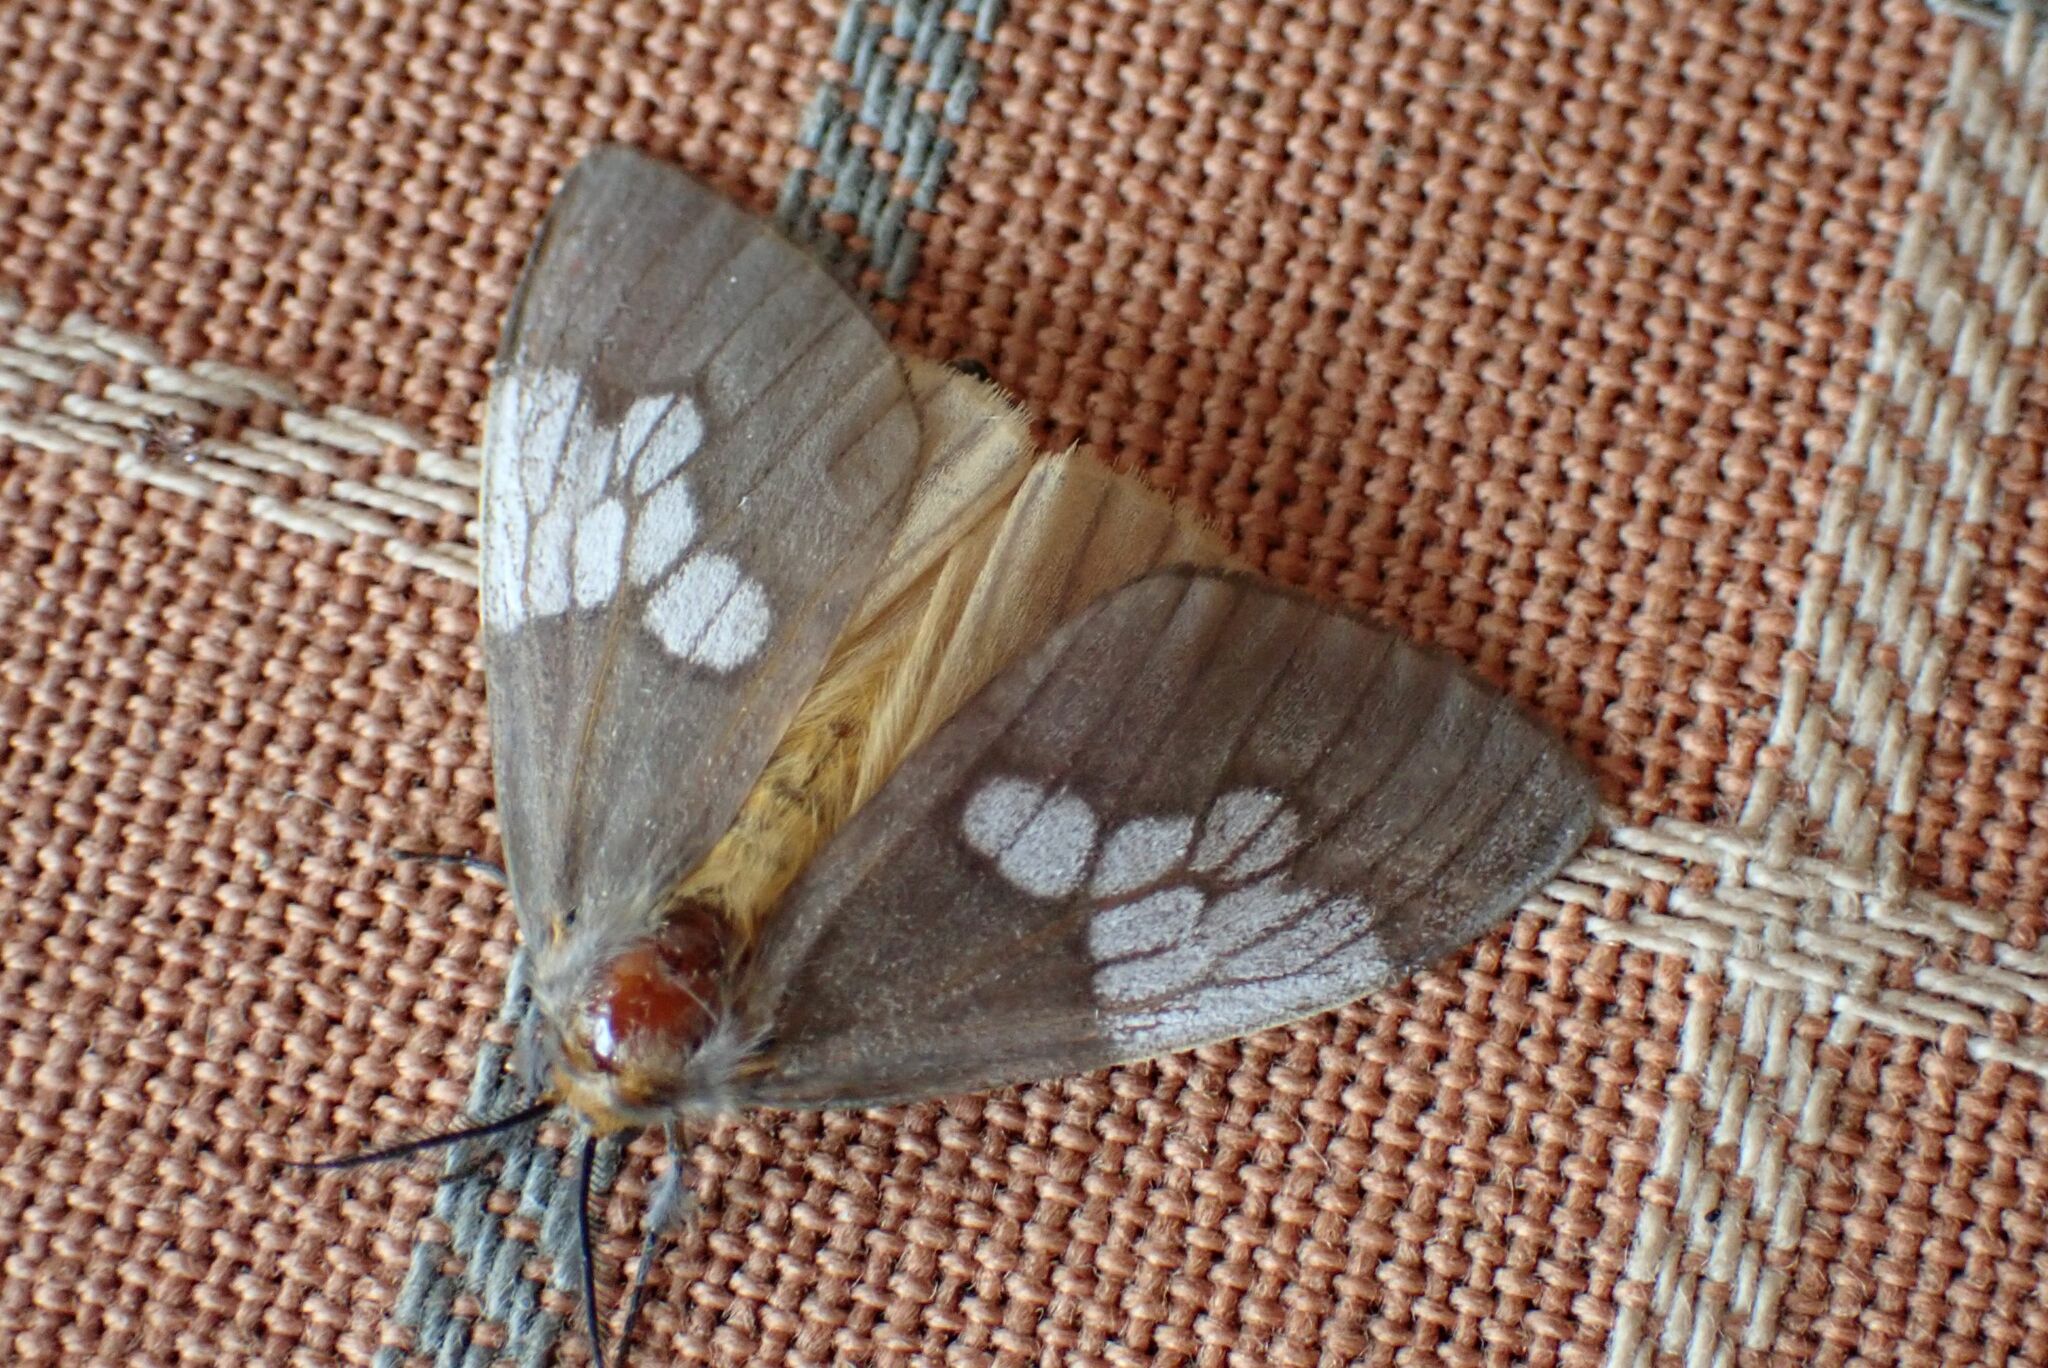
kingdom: Animalia
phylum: Arthropoda
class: Insecta
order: Lepidoptera
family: Erebidae
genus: Palasea
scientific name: Palasea albimacula
